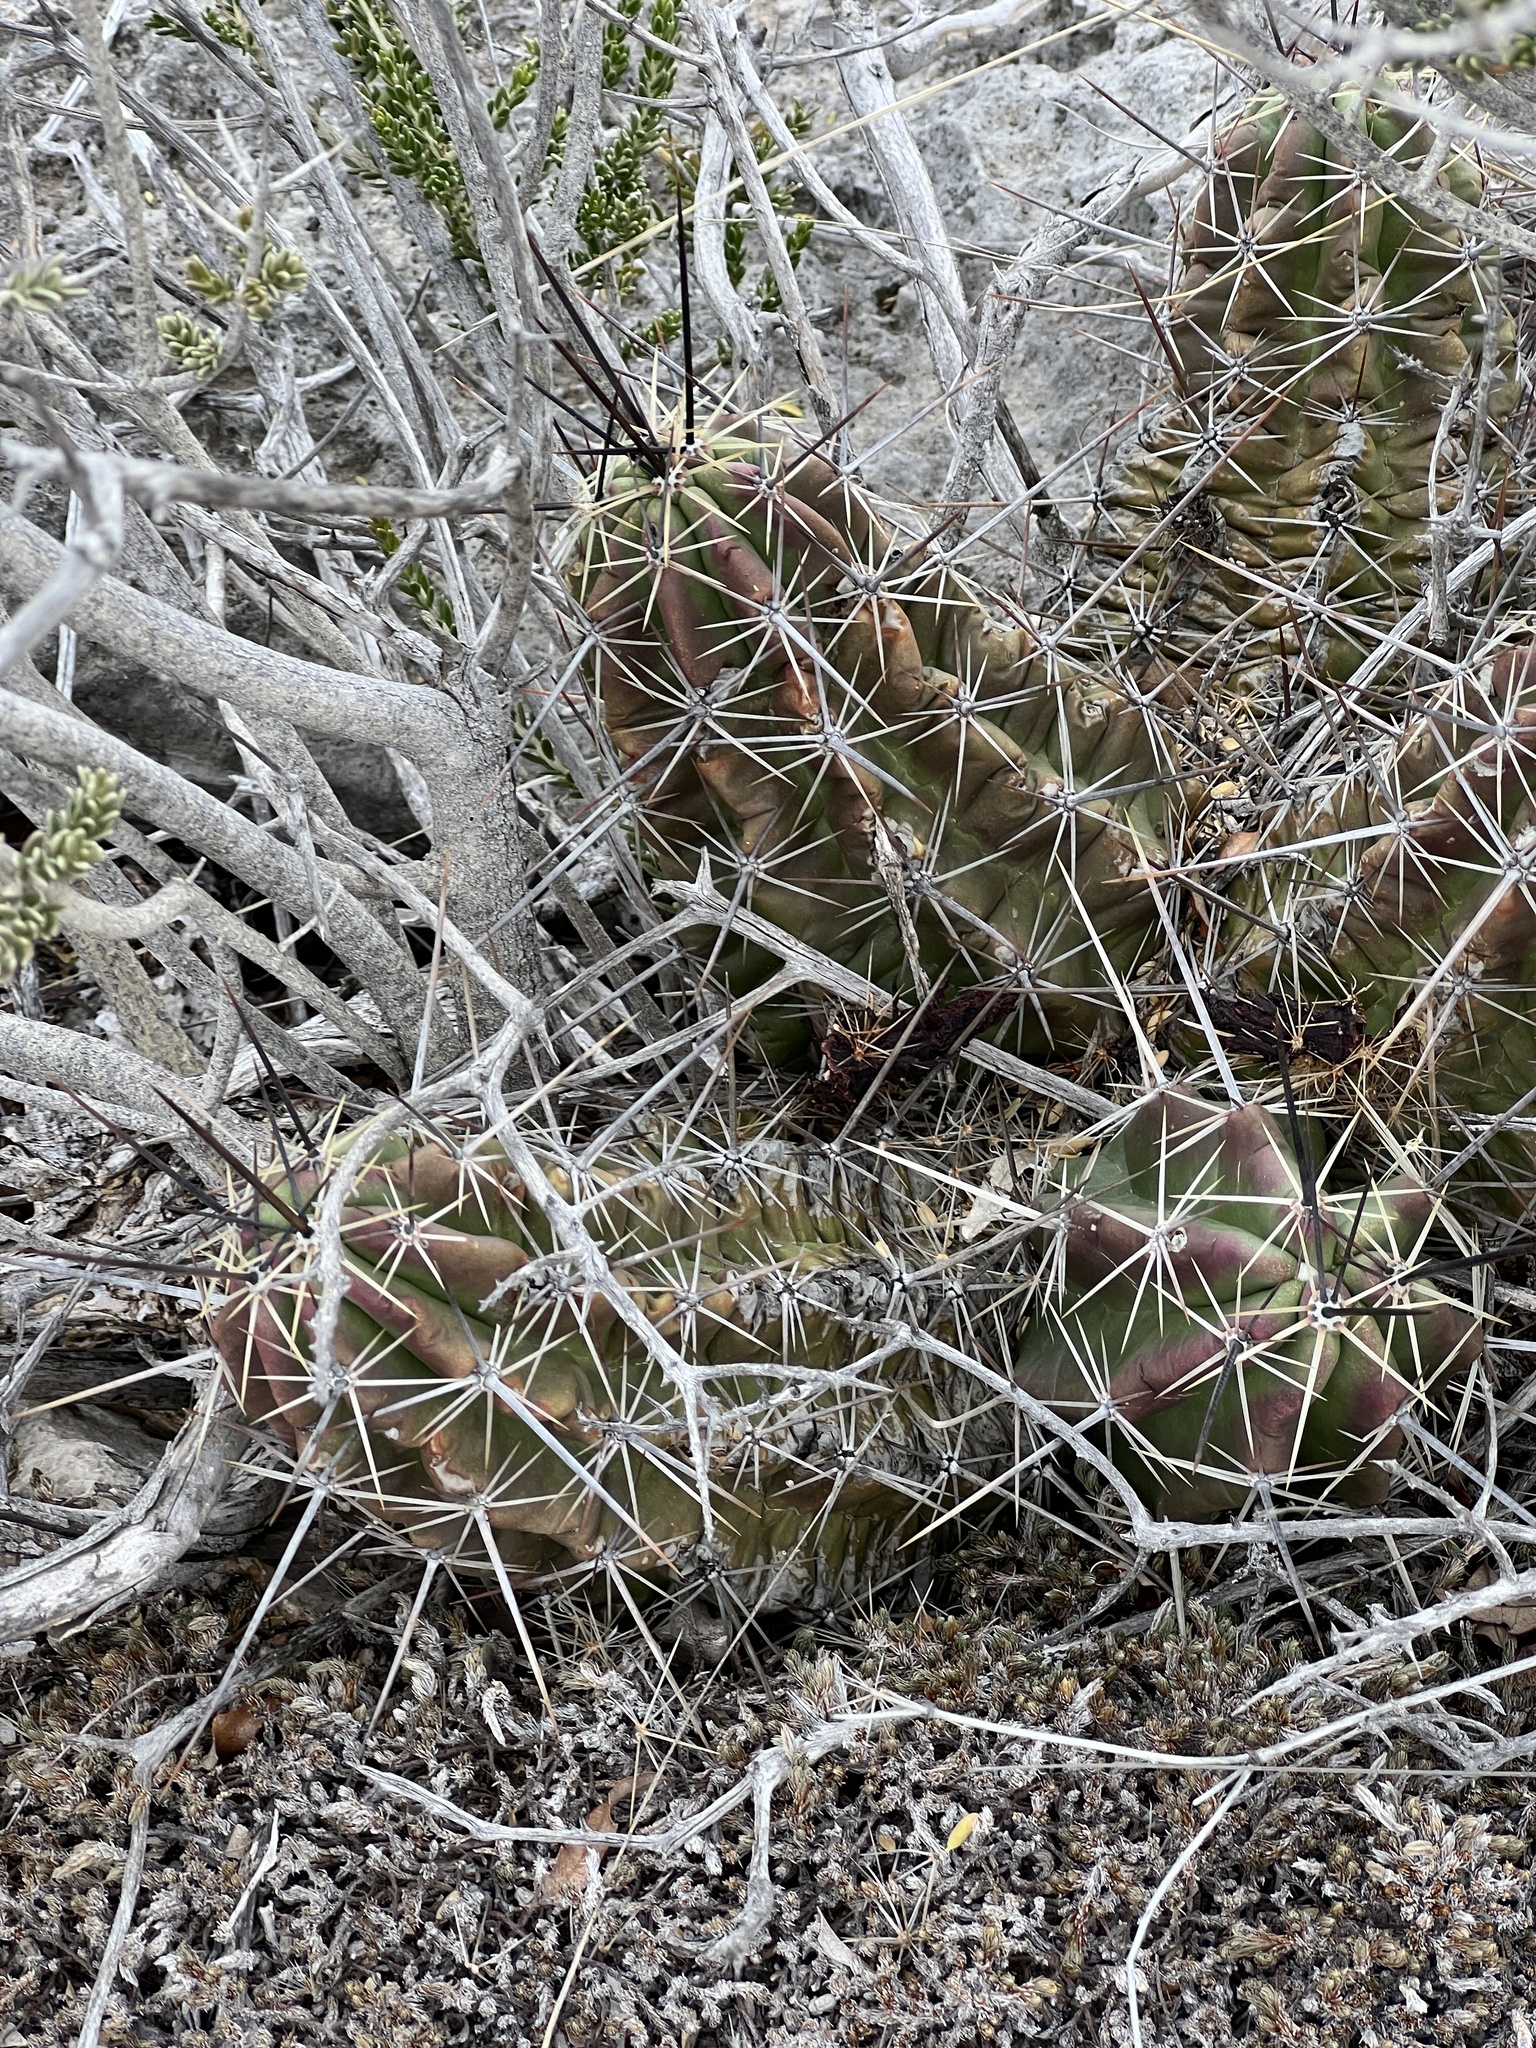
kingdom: Plantae
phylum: Tracheophyta
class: Magnoliopsida
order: Caryophyllales
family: Cactaceae
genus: Echinocereus
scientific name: Echinocereus enneacanthus
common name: Pitaya
